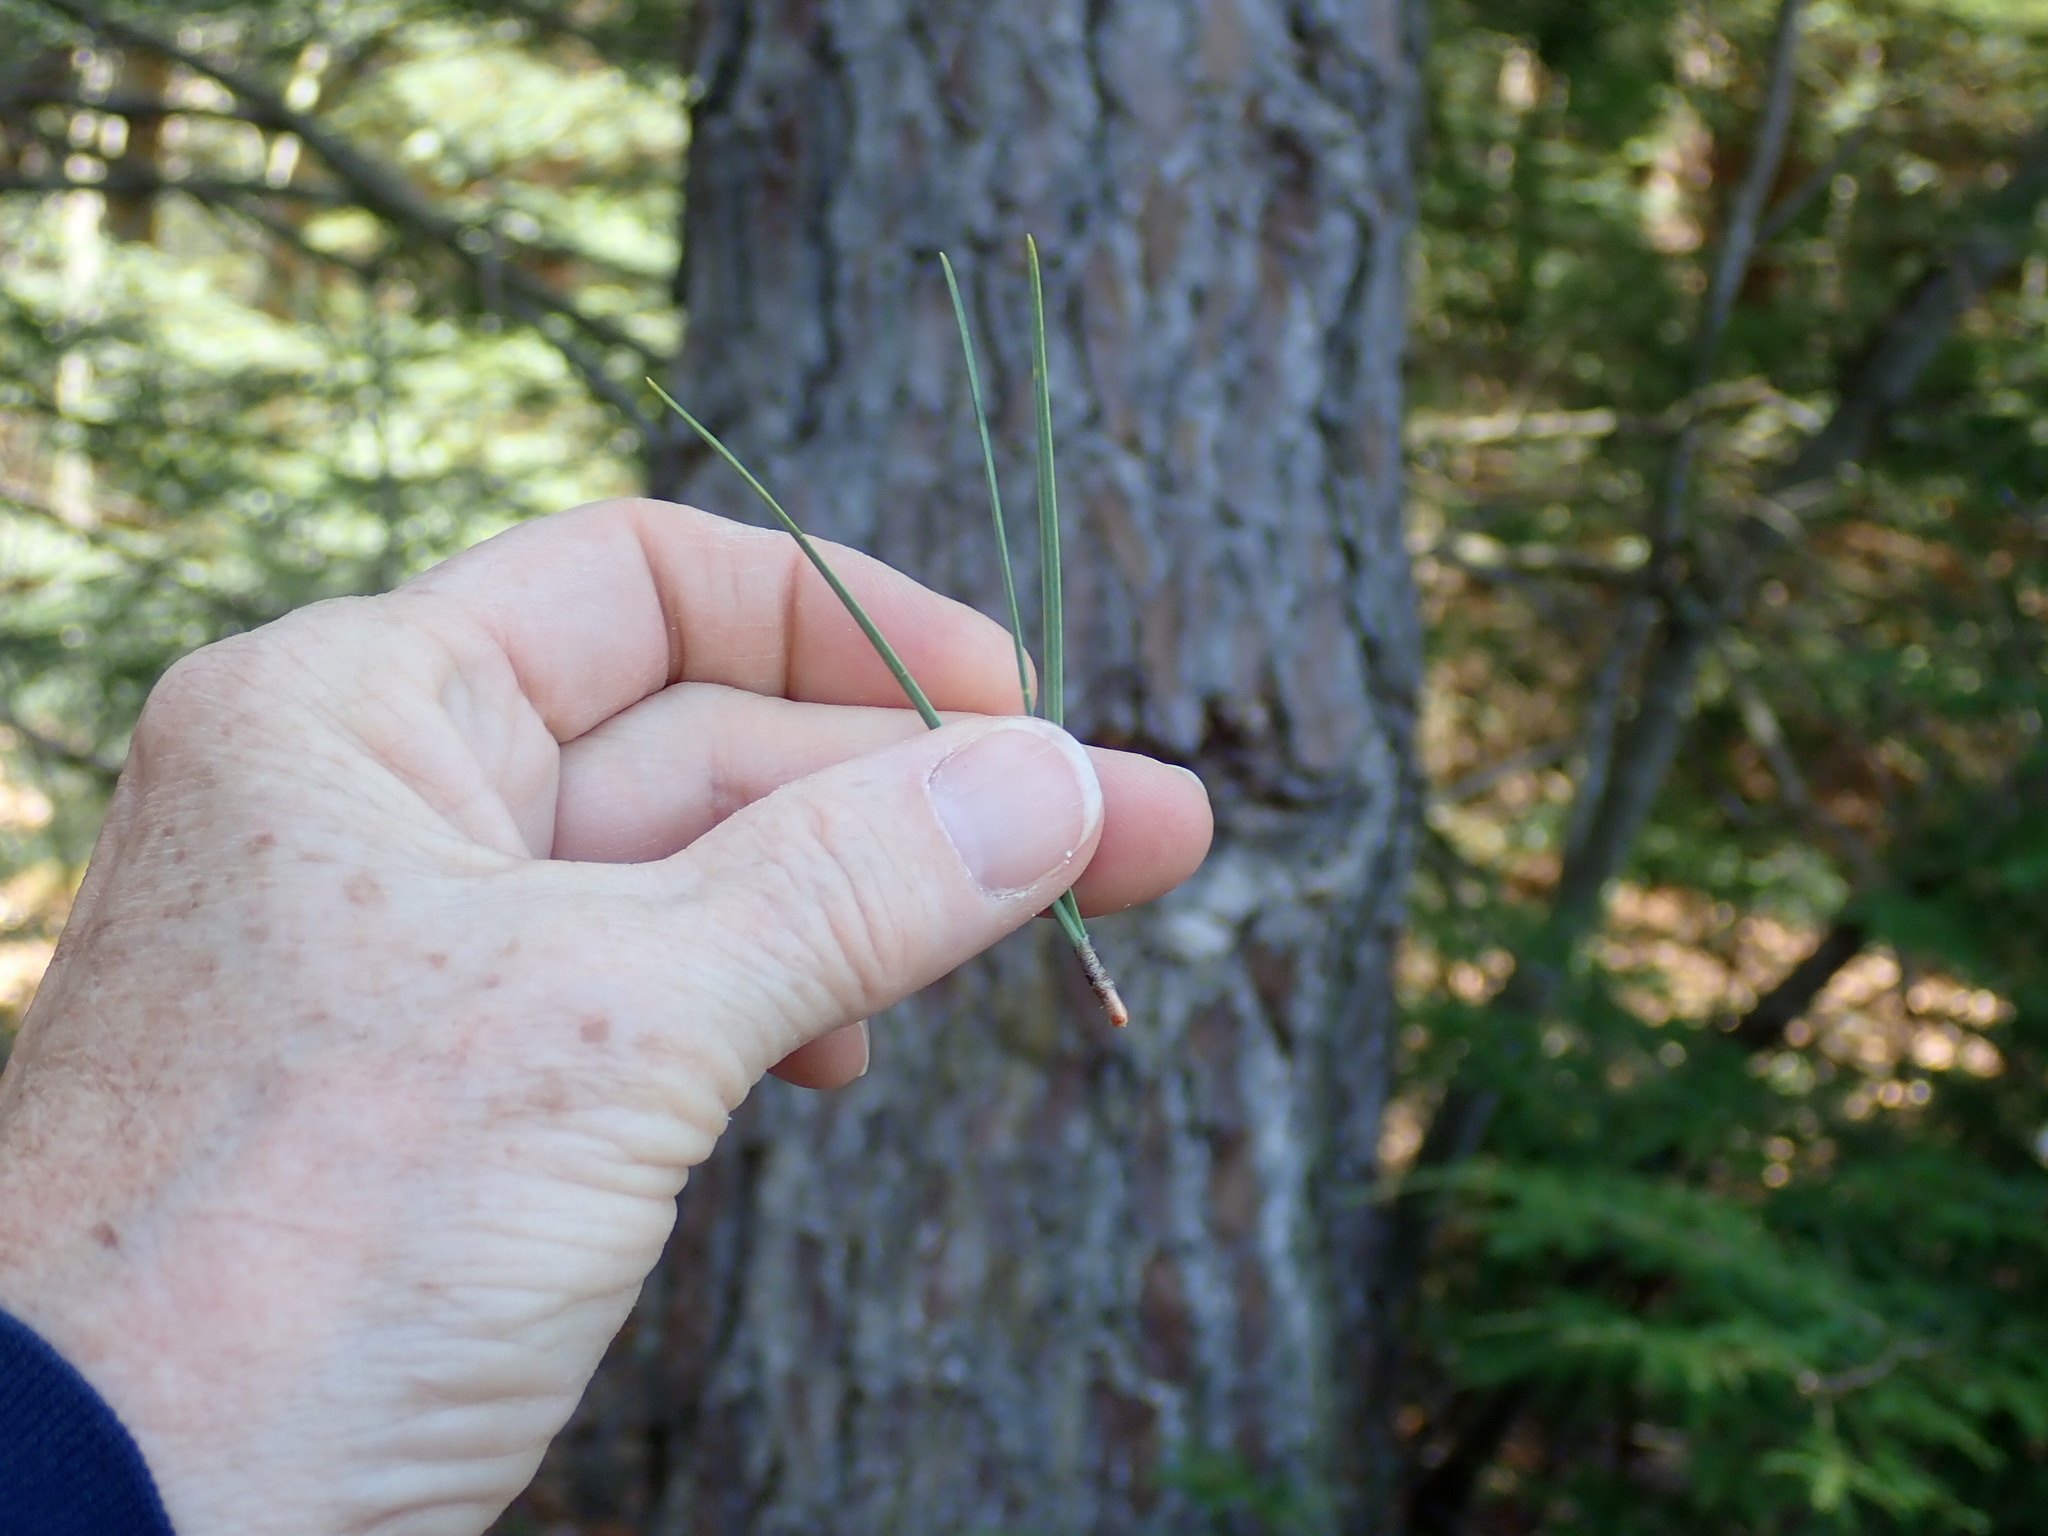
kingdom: Plantae
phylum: Tracheophyta
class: Pinopsida
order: Pinales
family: Pinaceae
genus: Pinus
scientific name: Pinus rigida
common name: Pitch pine
